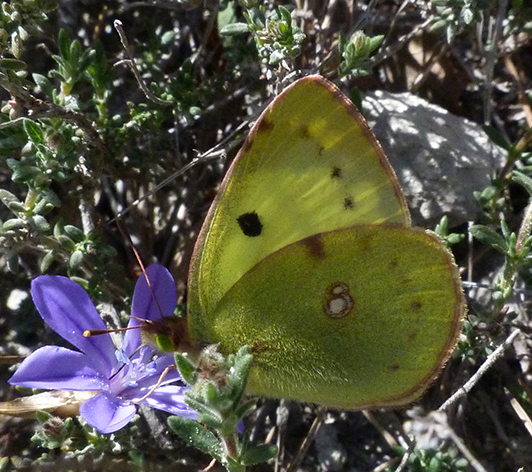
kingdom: Animalia
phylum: Arthropoda
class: Insecta
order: Lepidoptera
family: Pieridae
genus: Colias
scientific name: Colias alfacariensis
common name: Berger's clouded yellow
